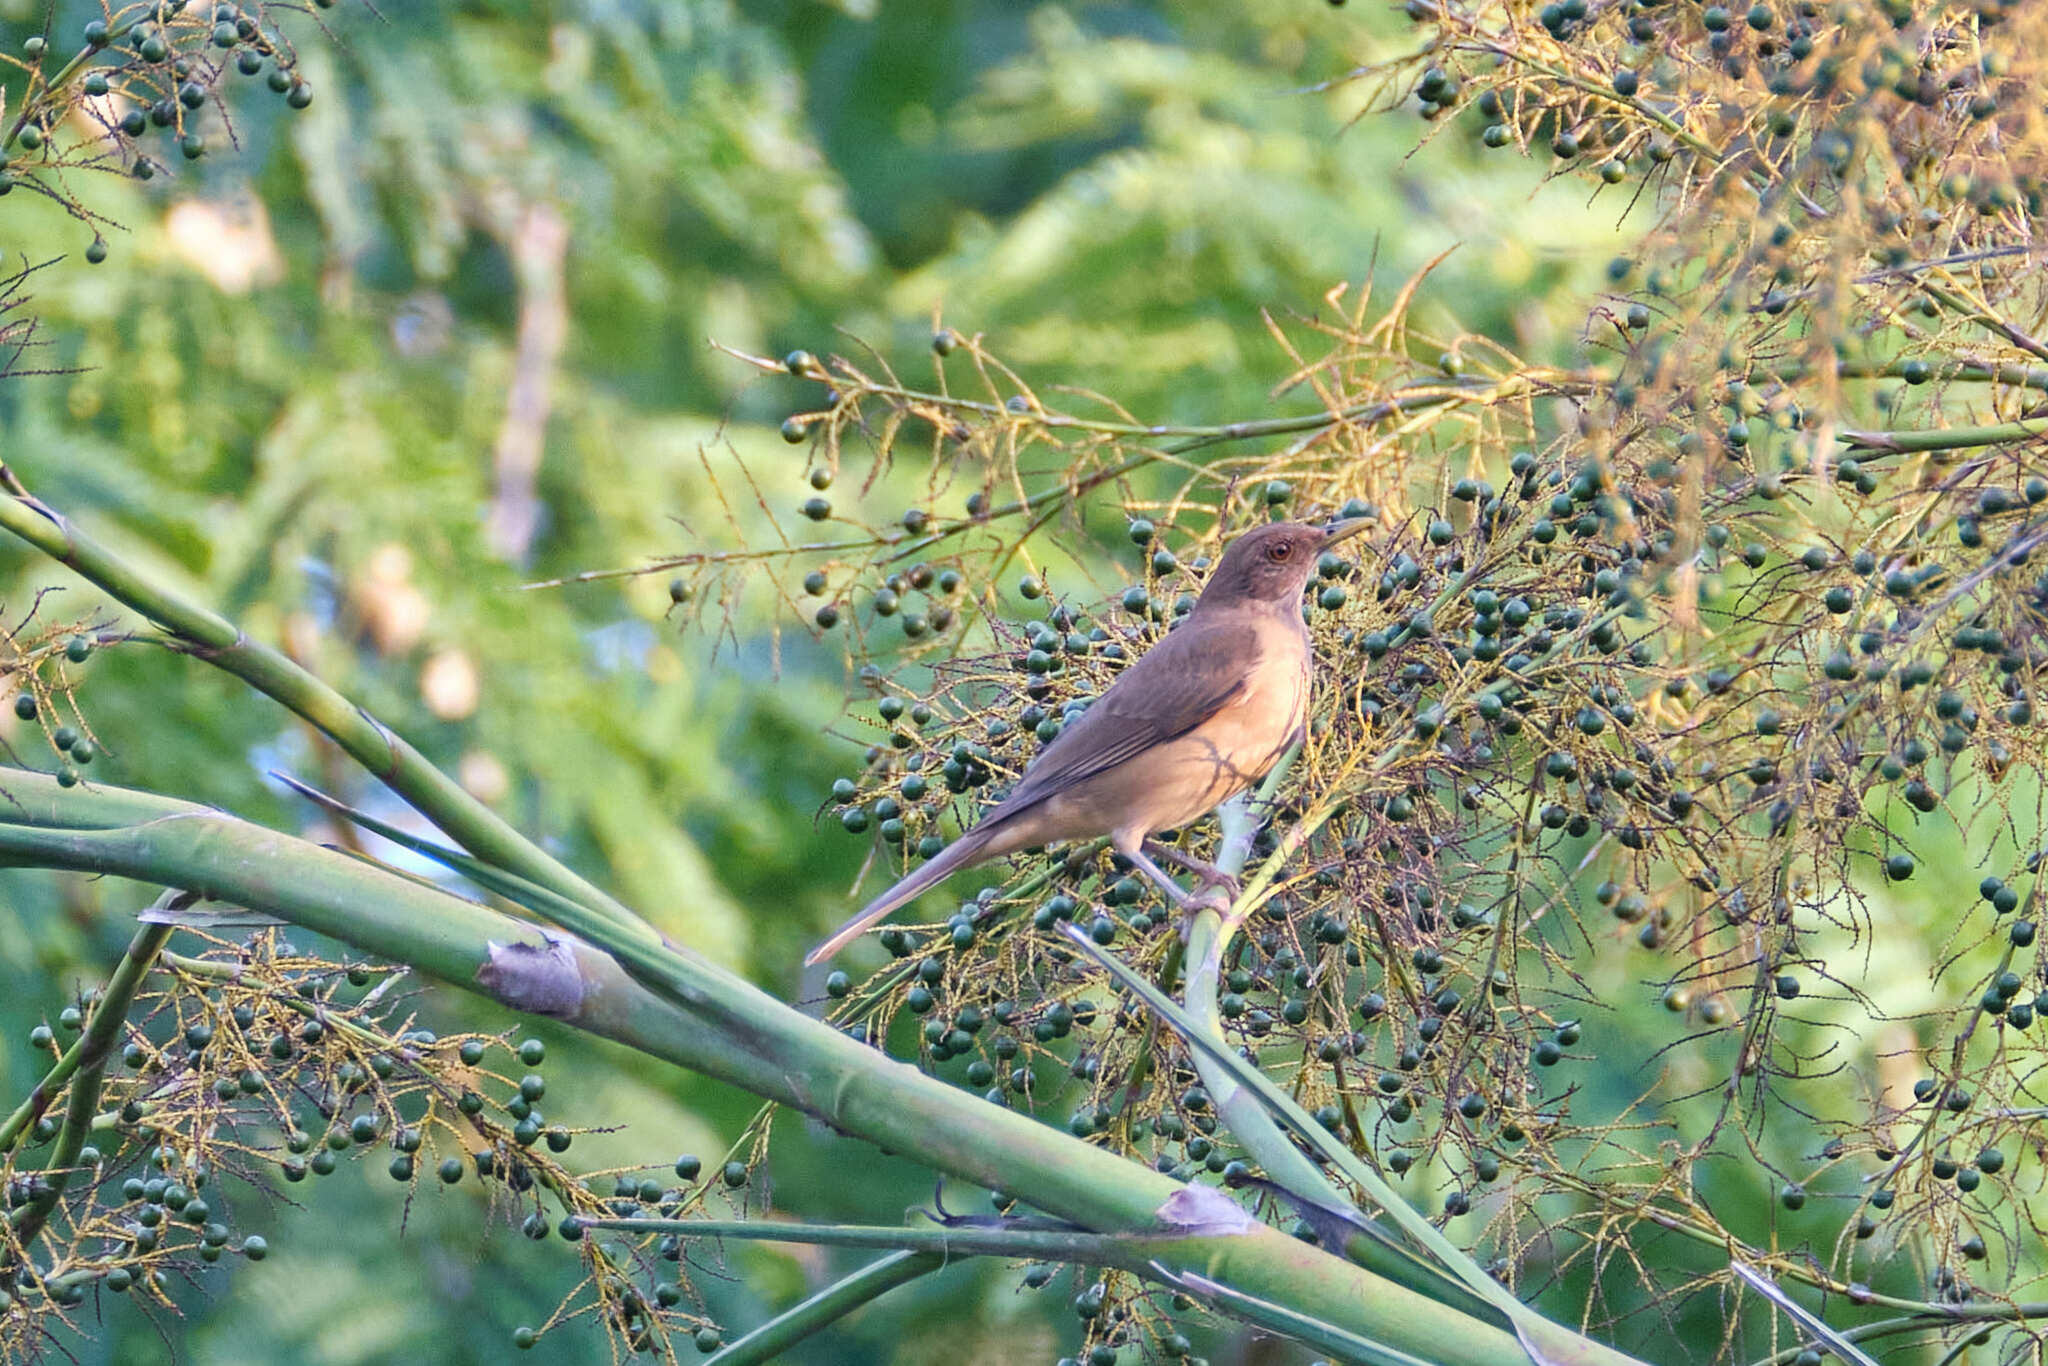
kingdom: Animalia
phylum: Chordata
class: Aves
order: Passeriformes
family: Turdidae
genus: Turdus
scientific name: Turdus grayi
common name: Clay-colored thrush
